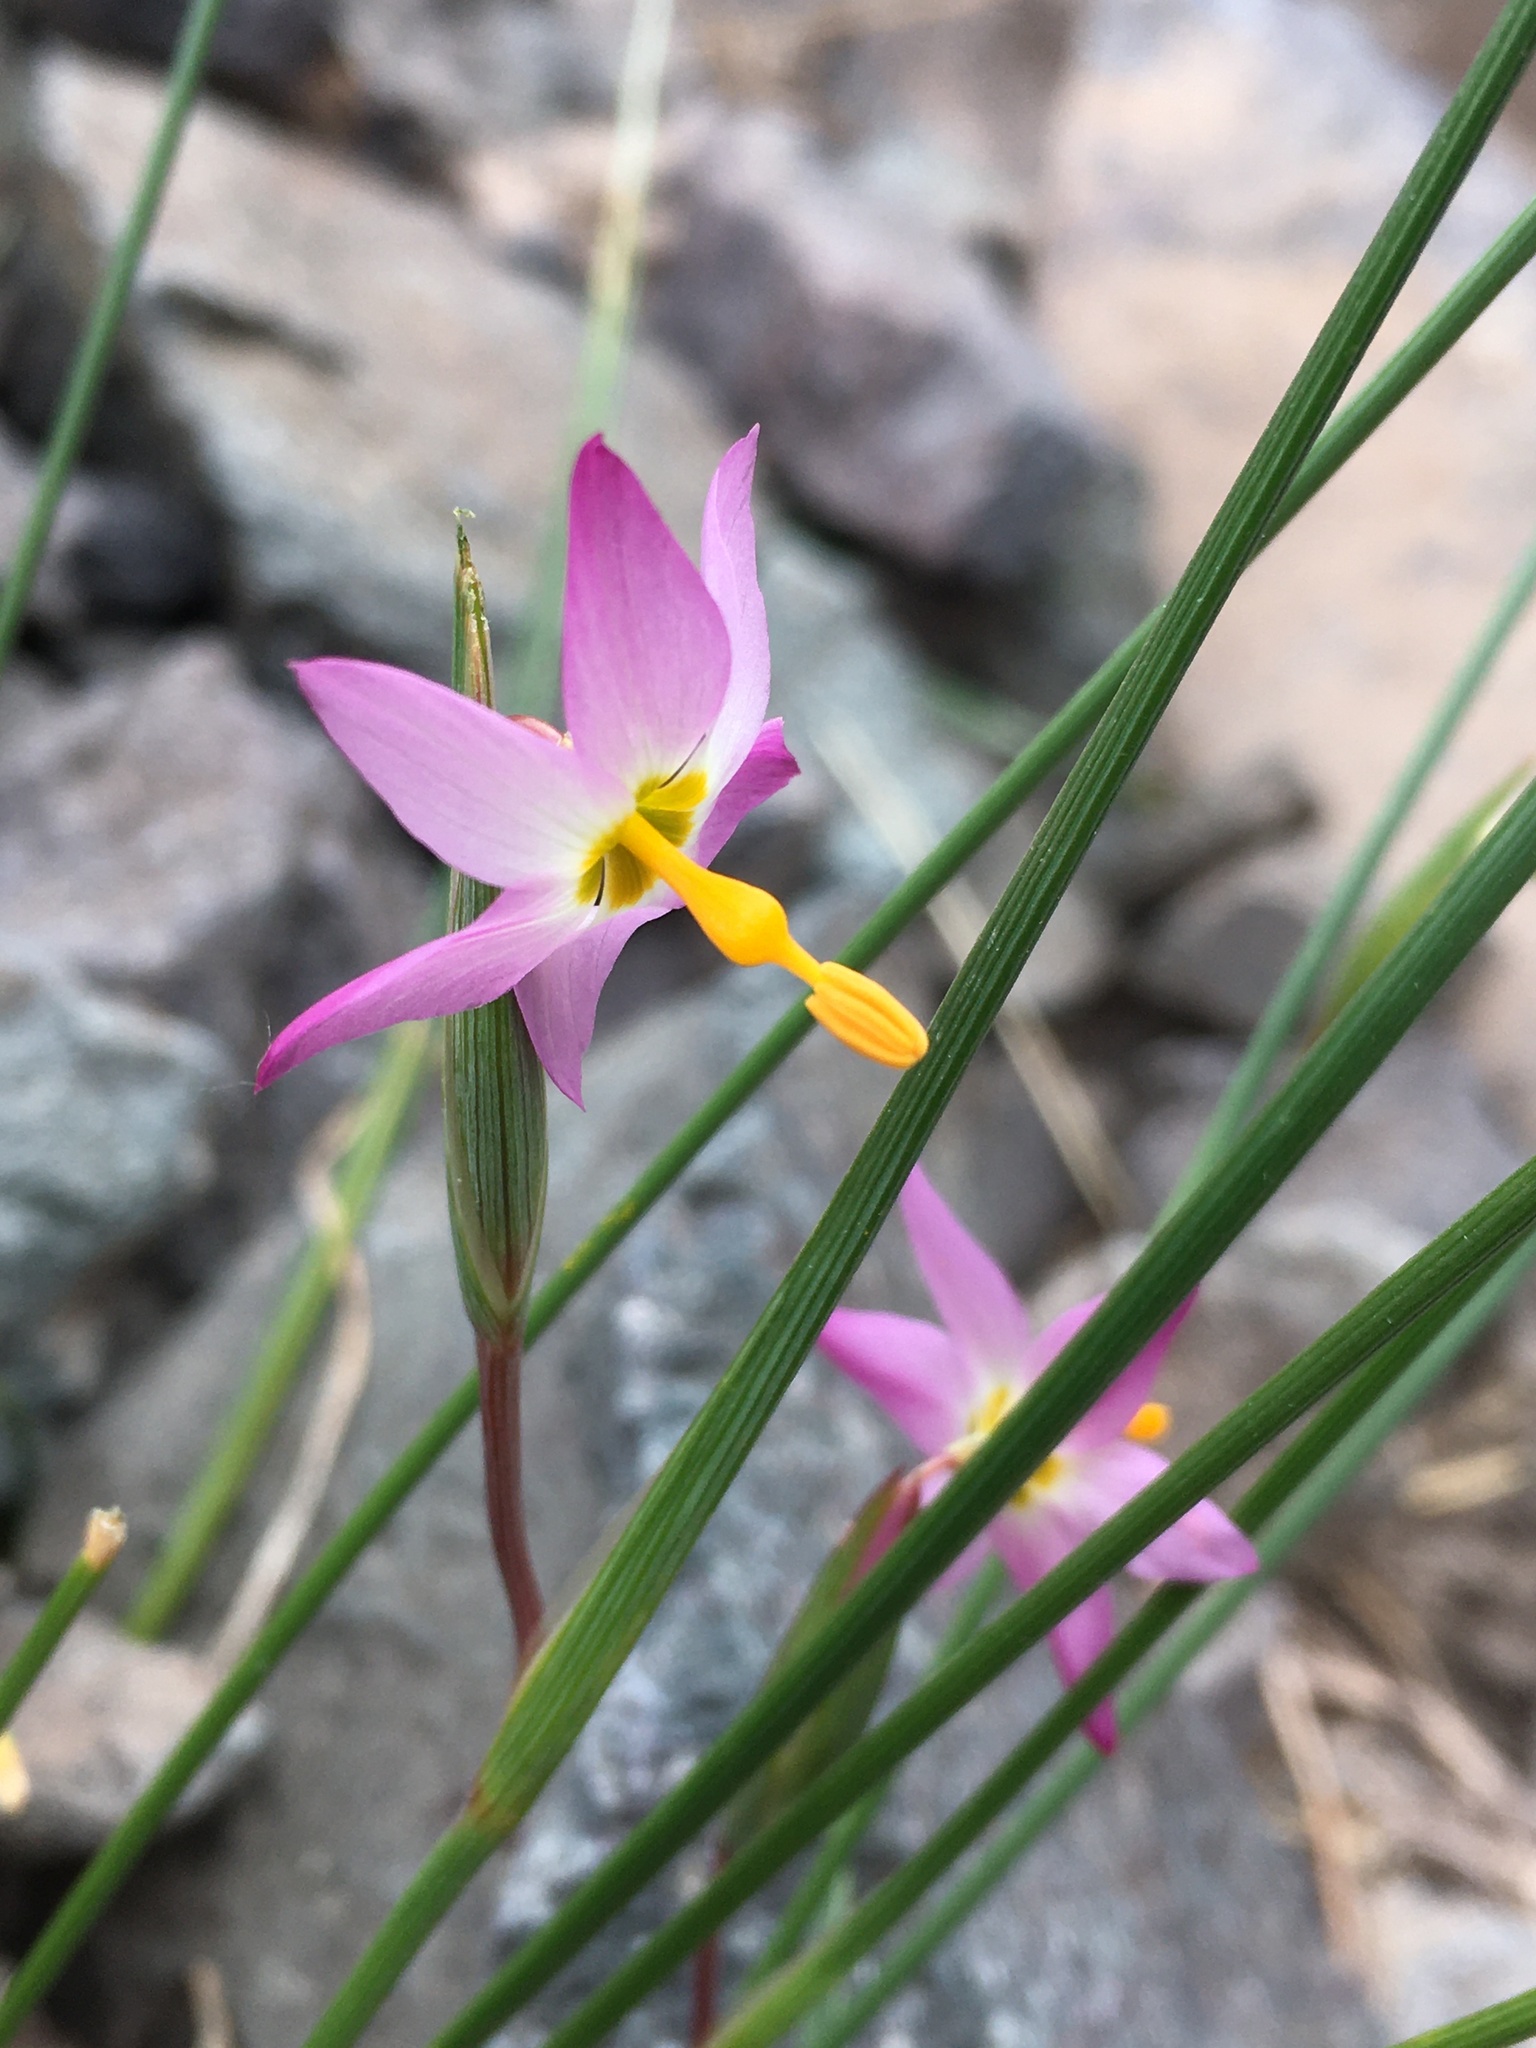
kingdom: Plantae
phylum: Tracheophyta
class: Liliopsida
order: Asparagales
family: Iridaceae
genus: Olsynium
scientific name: Olsynium scirpoideum
